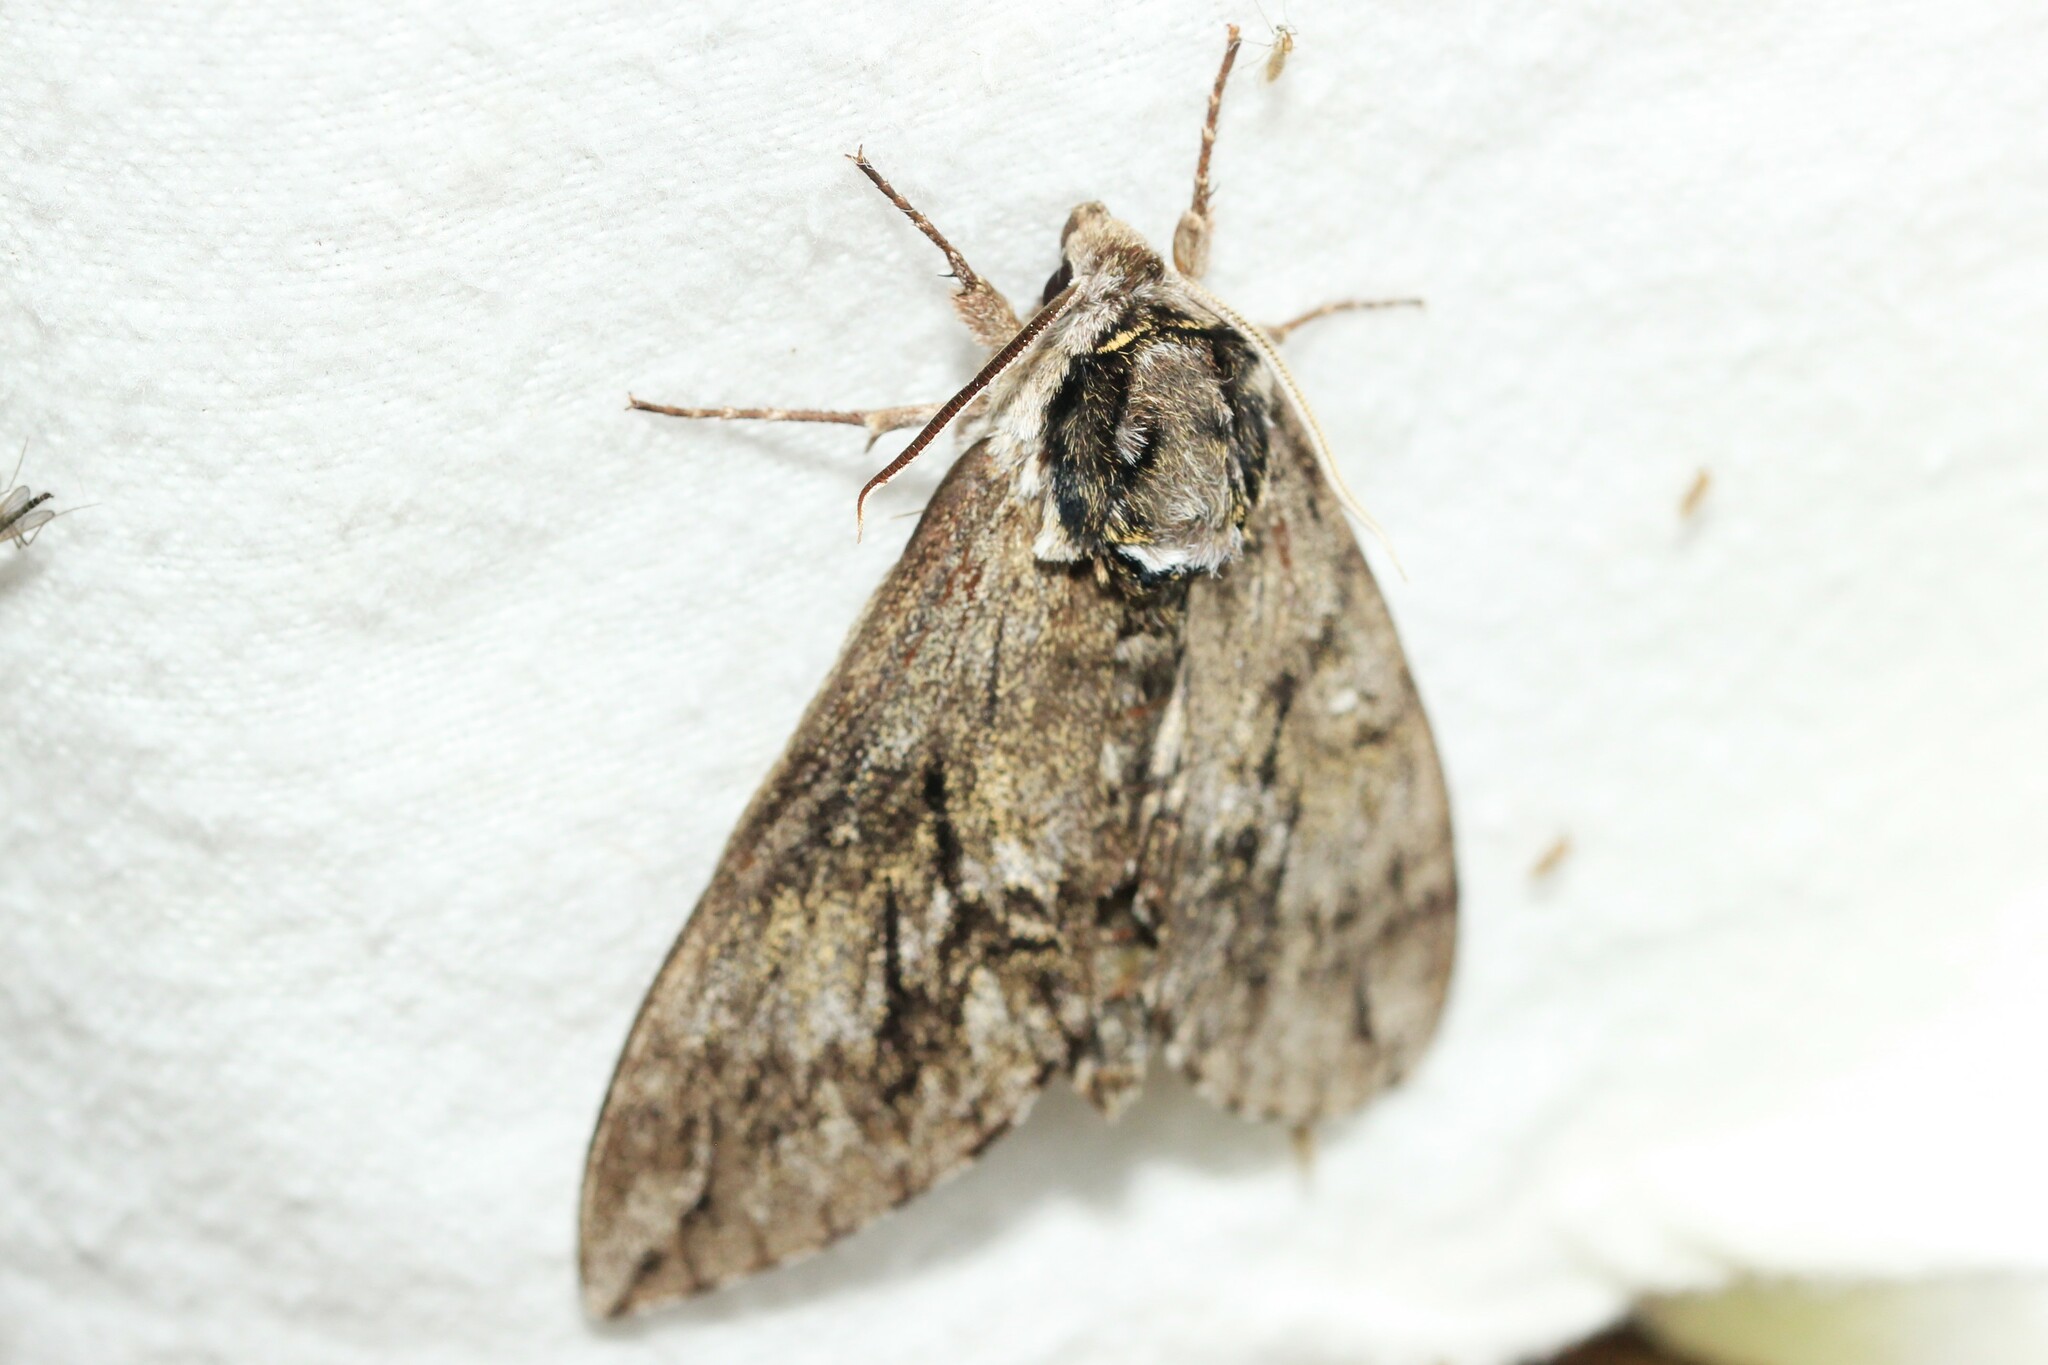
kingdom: Animalia
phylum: Arthropoda
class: Insecta
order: Lepidoptera
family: Sphingidae
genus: Ceratomia
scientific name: Ceratomia undulosa
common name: Waved sphinx
